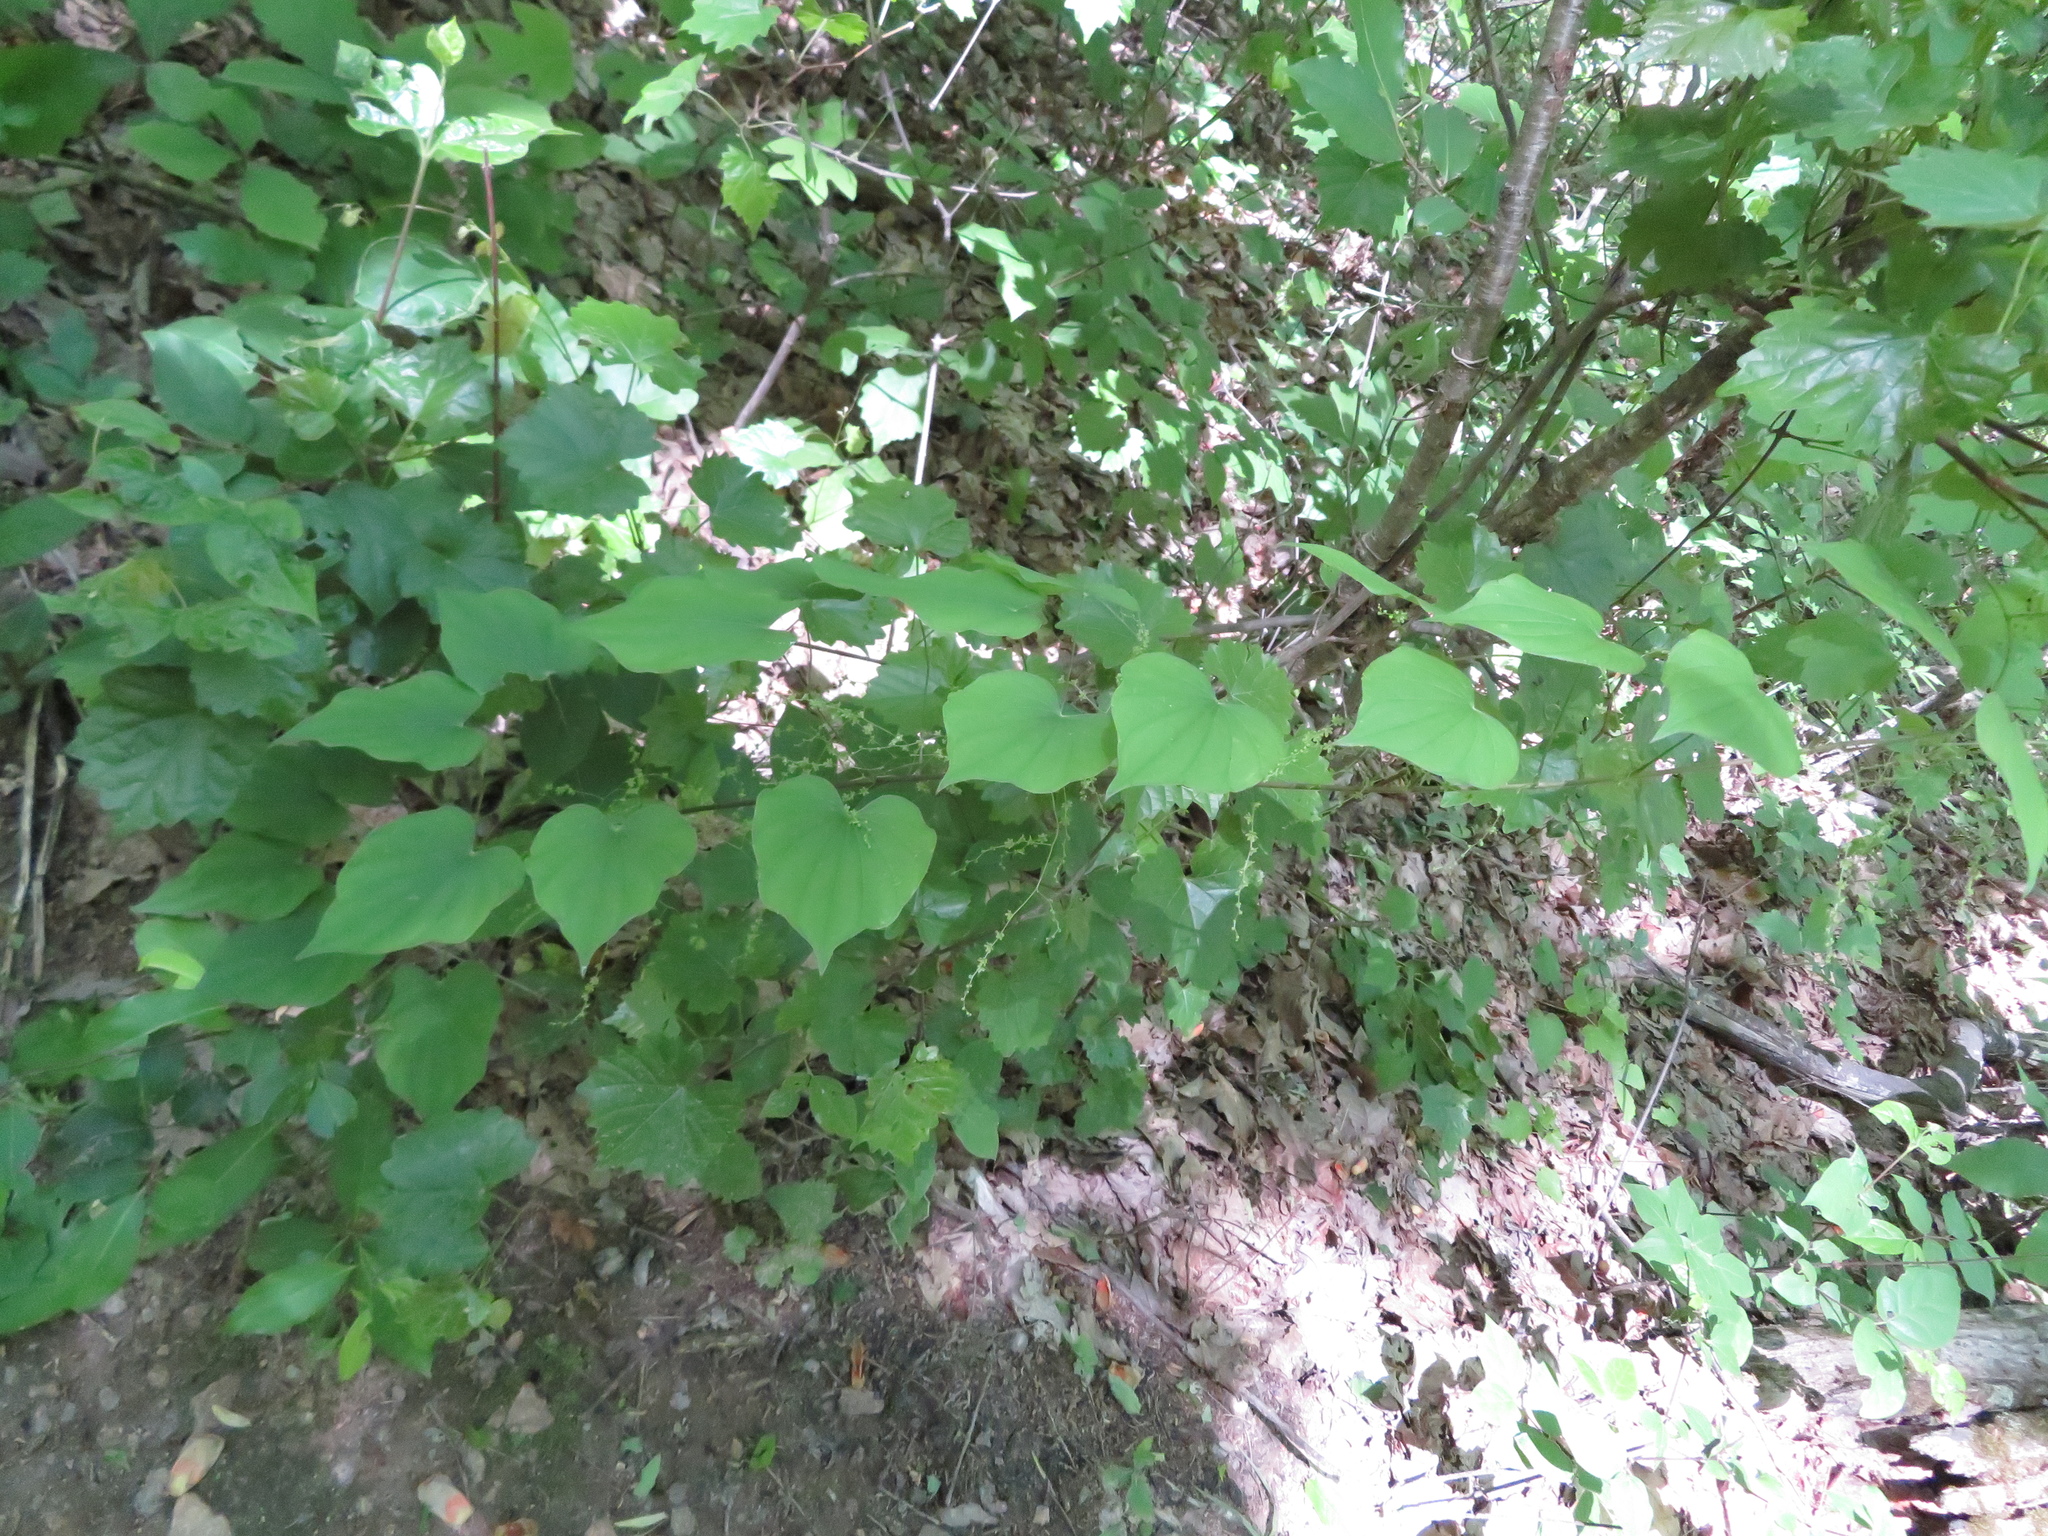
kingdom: Plantae
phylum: Tracheophyta
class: Liliopsida
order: Dioscoreales
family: Dioscoreaceae
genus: Dioscorea
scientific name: Dioscorea villosa
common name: Wild yam
